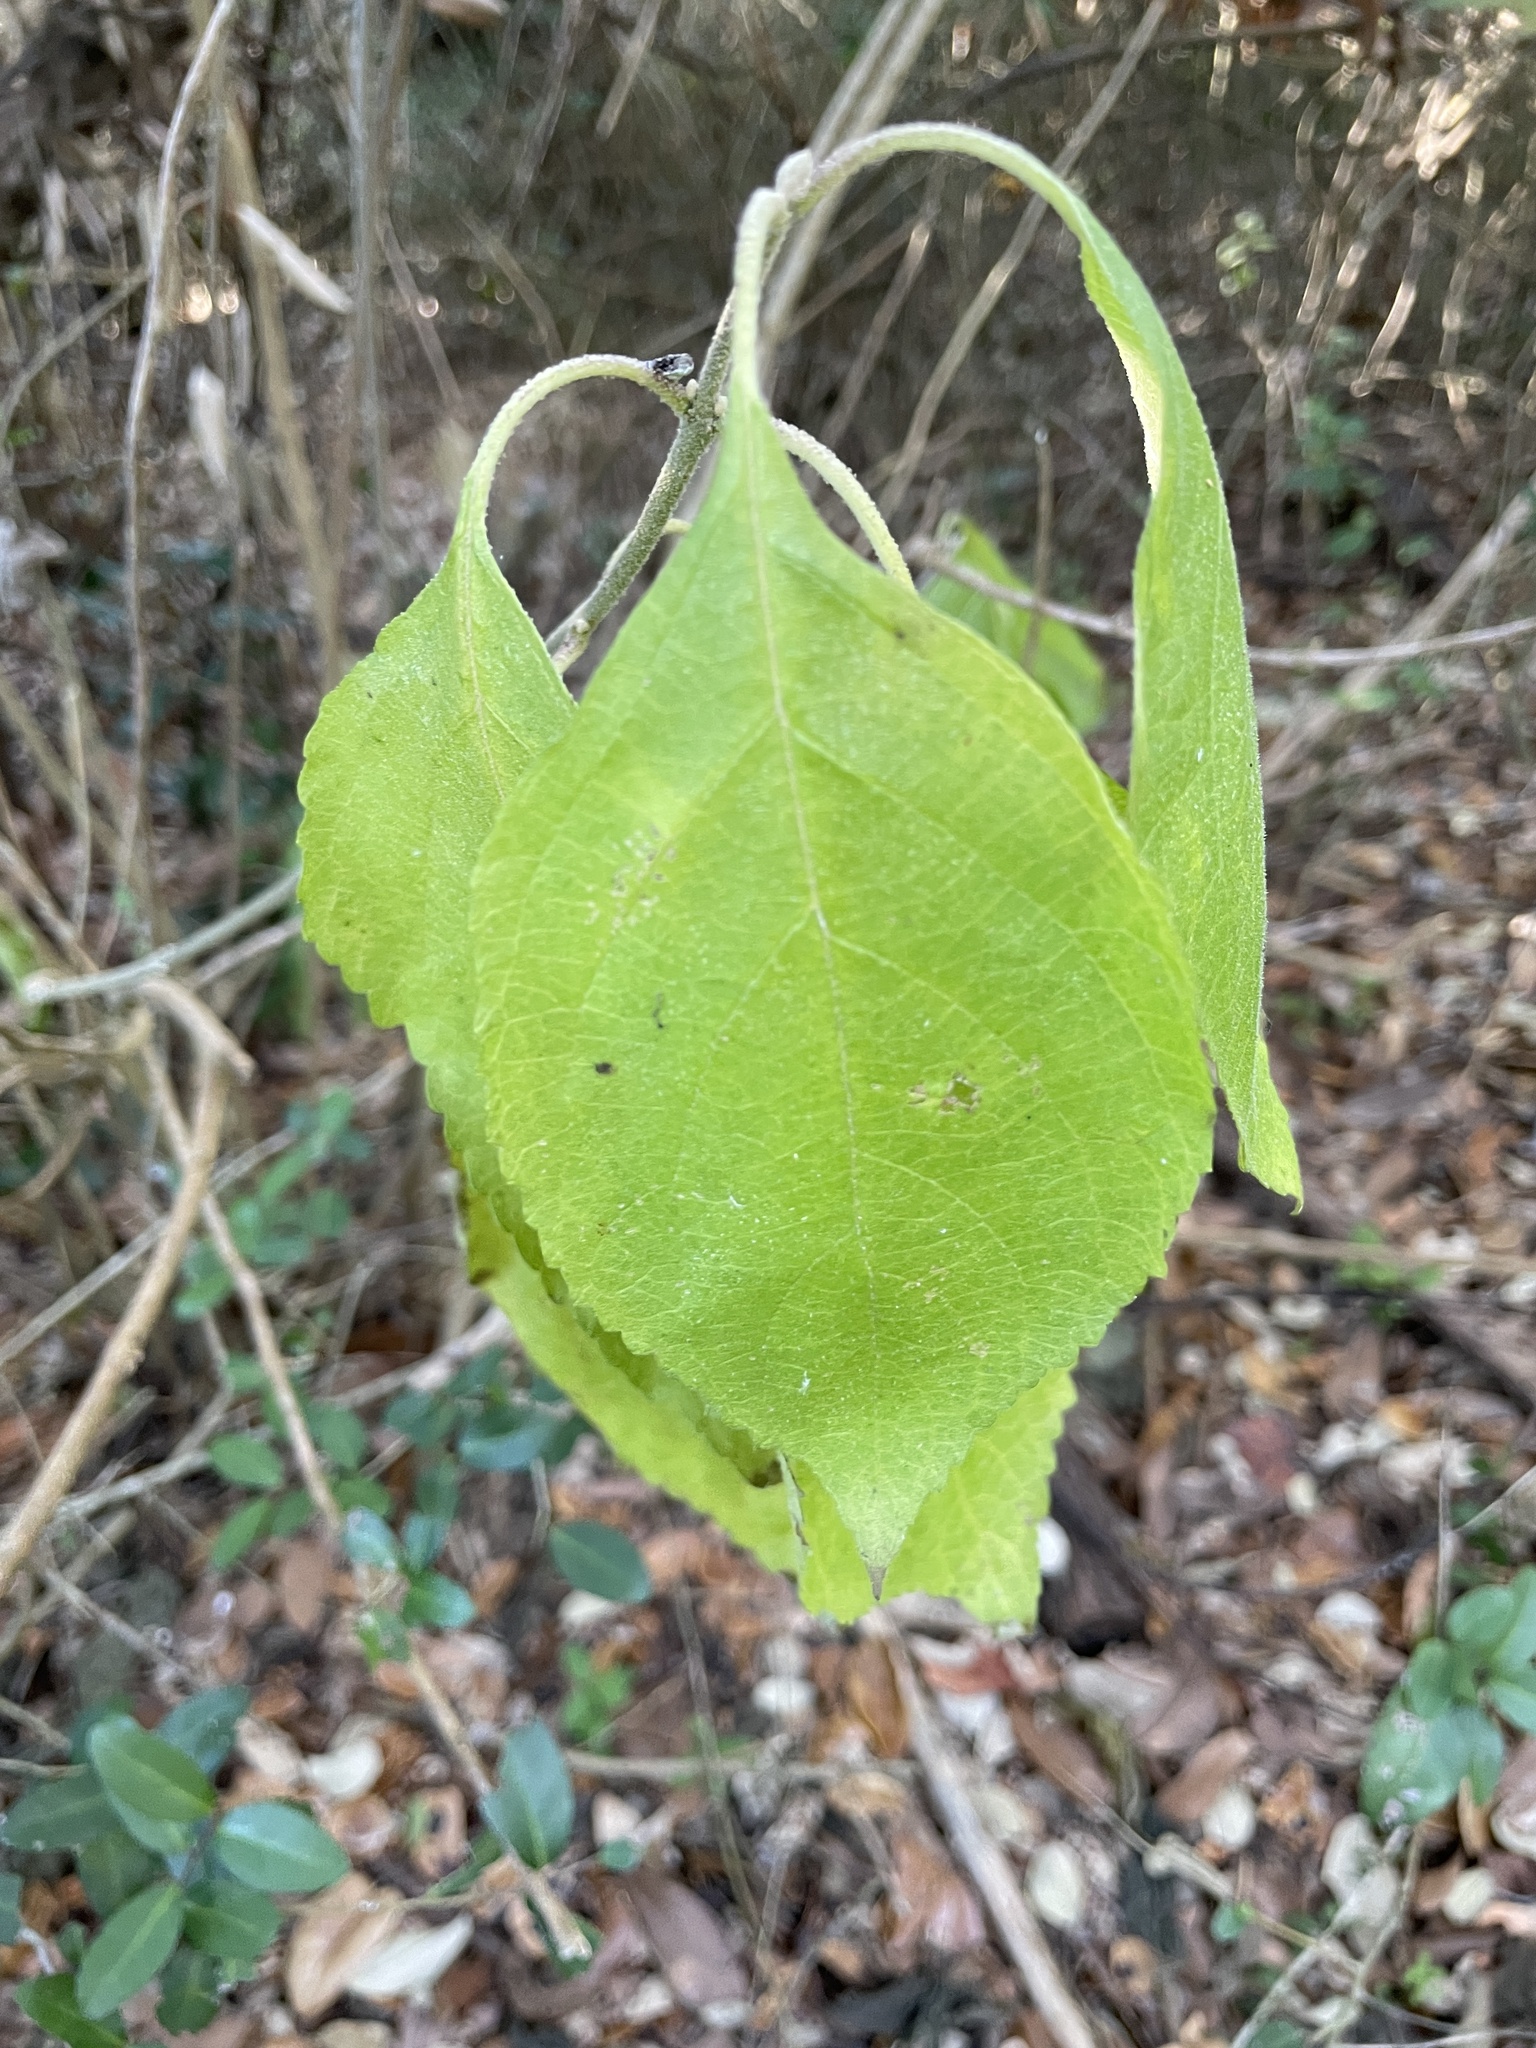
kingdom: Plantae
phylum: Tracheophyta
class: Magnoliopsida
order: Lamiales
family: Lamiaceae
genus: Callicarpa
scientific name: Callicarpa americana
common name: American beautyberry
